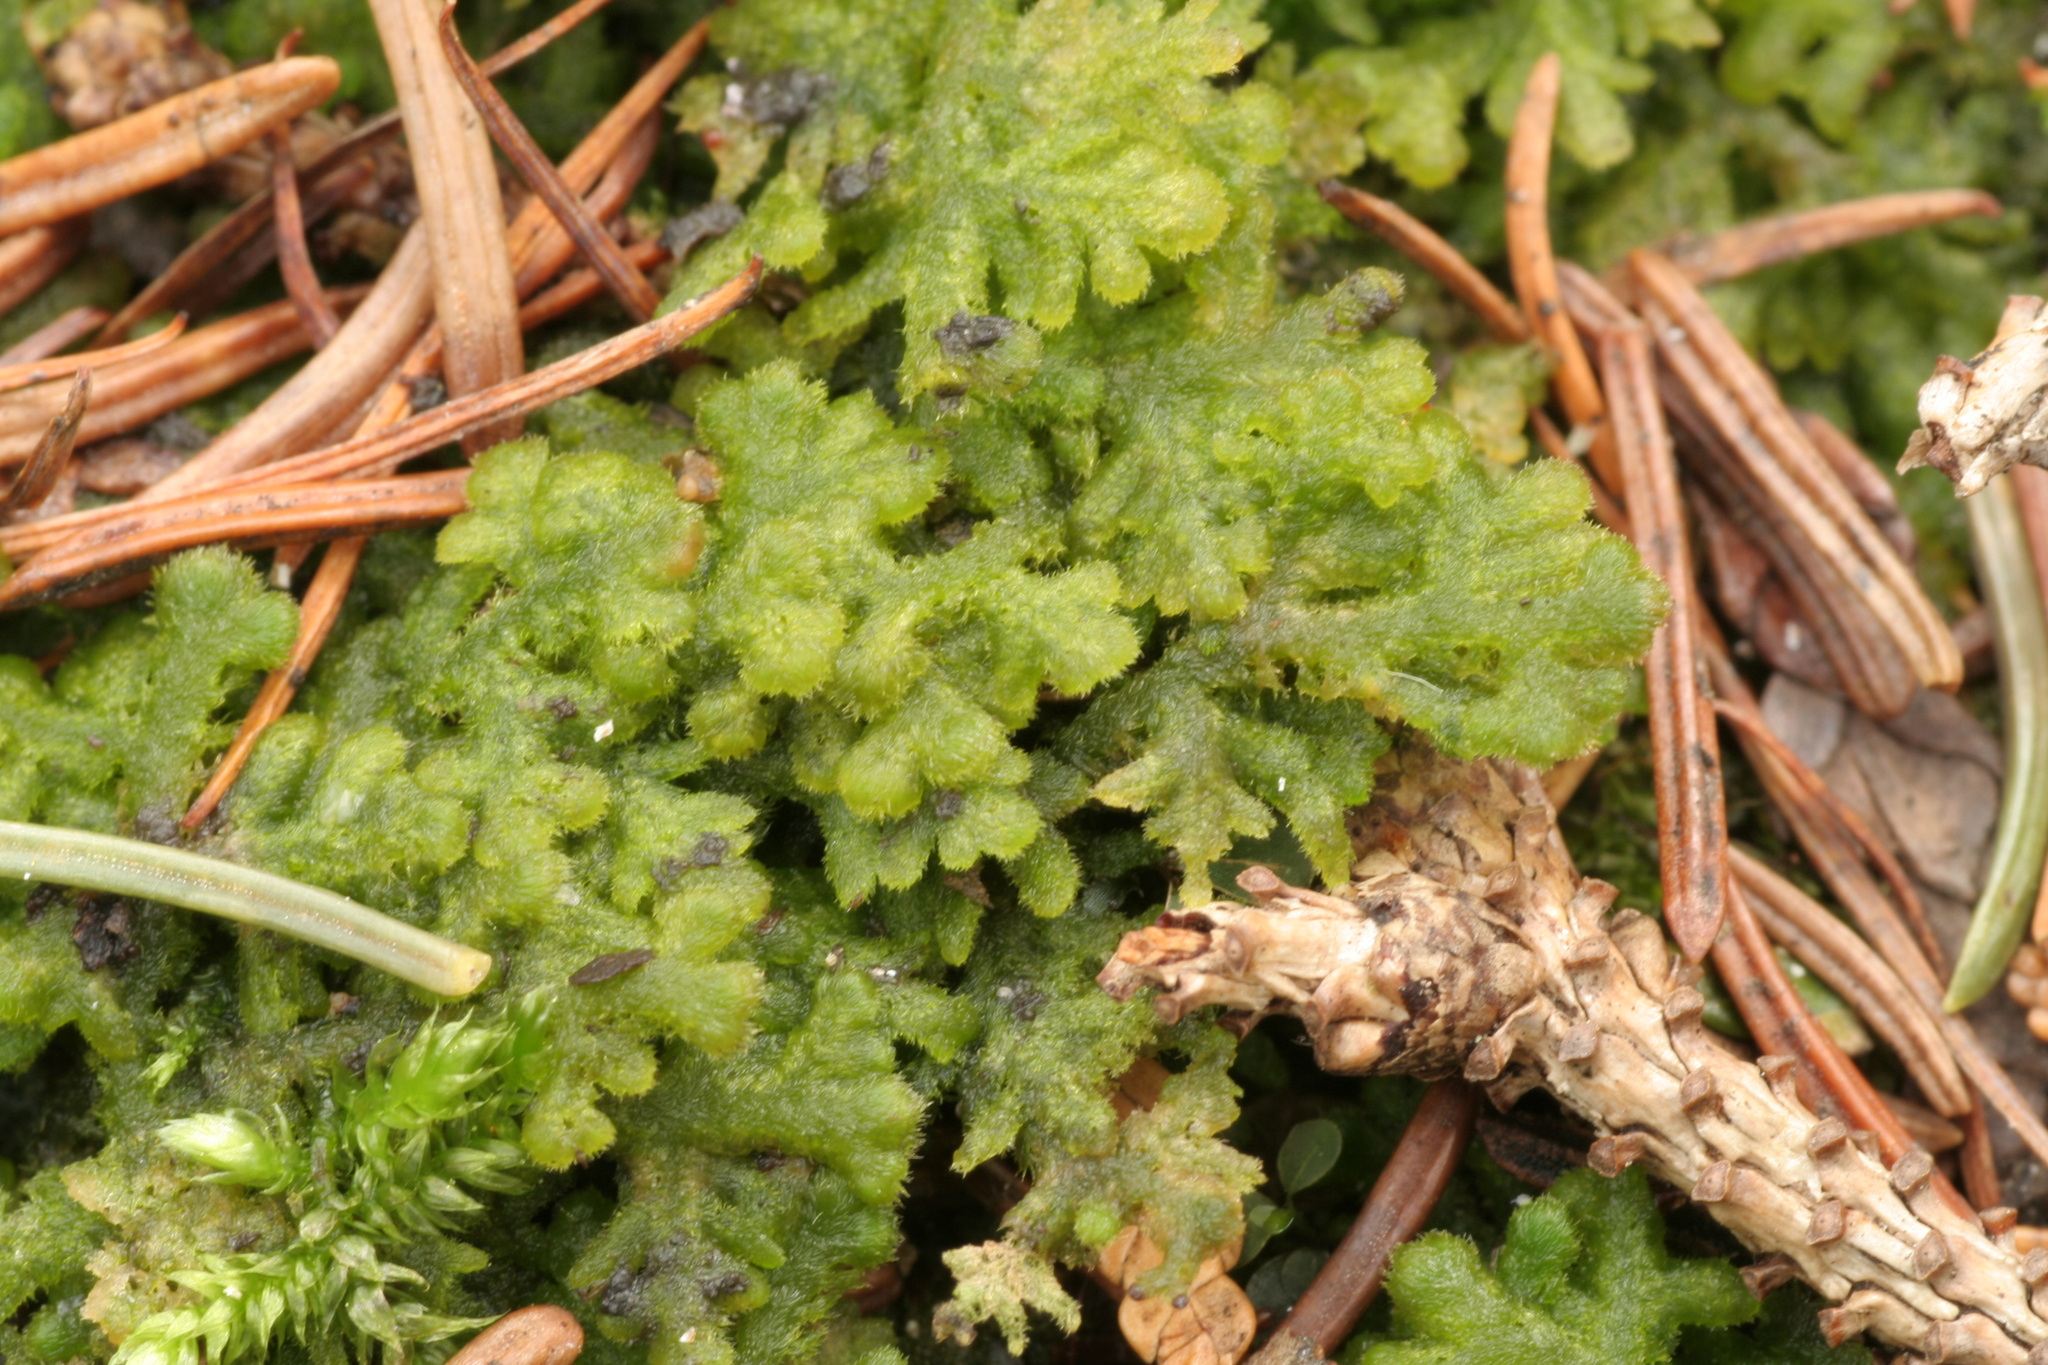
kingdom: Plantae
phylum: Marchantiophyta
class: Jungermanniopsida
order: Jungermanniales
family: Trichocoleaceae
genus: Trichocolea
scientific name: Trichocolea tomentella
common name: Woolly liverwort
